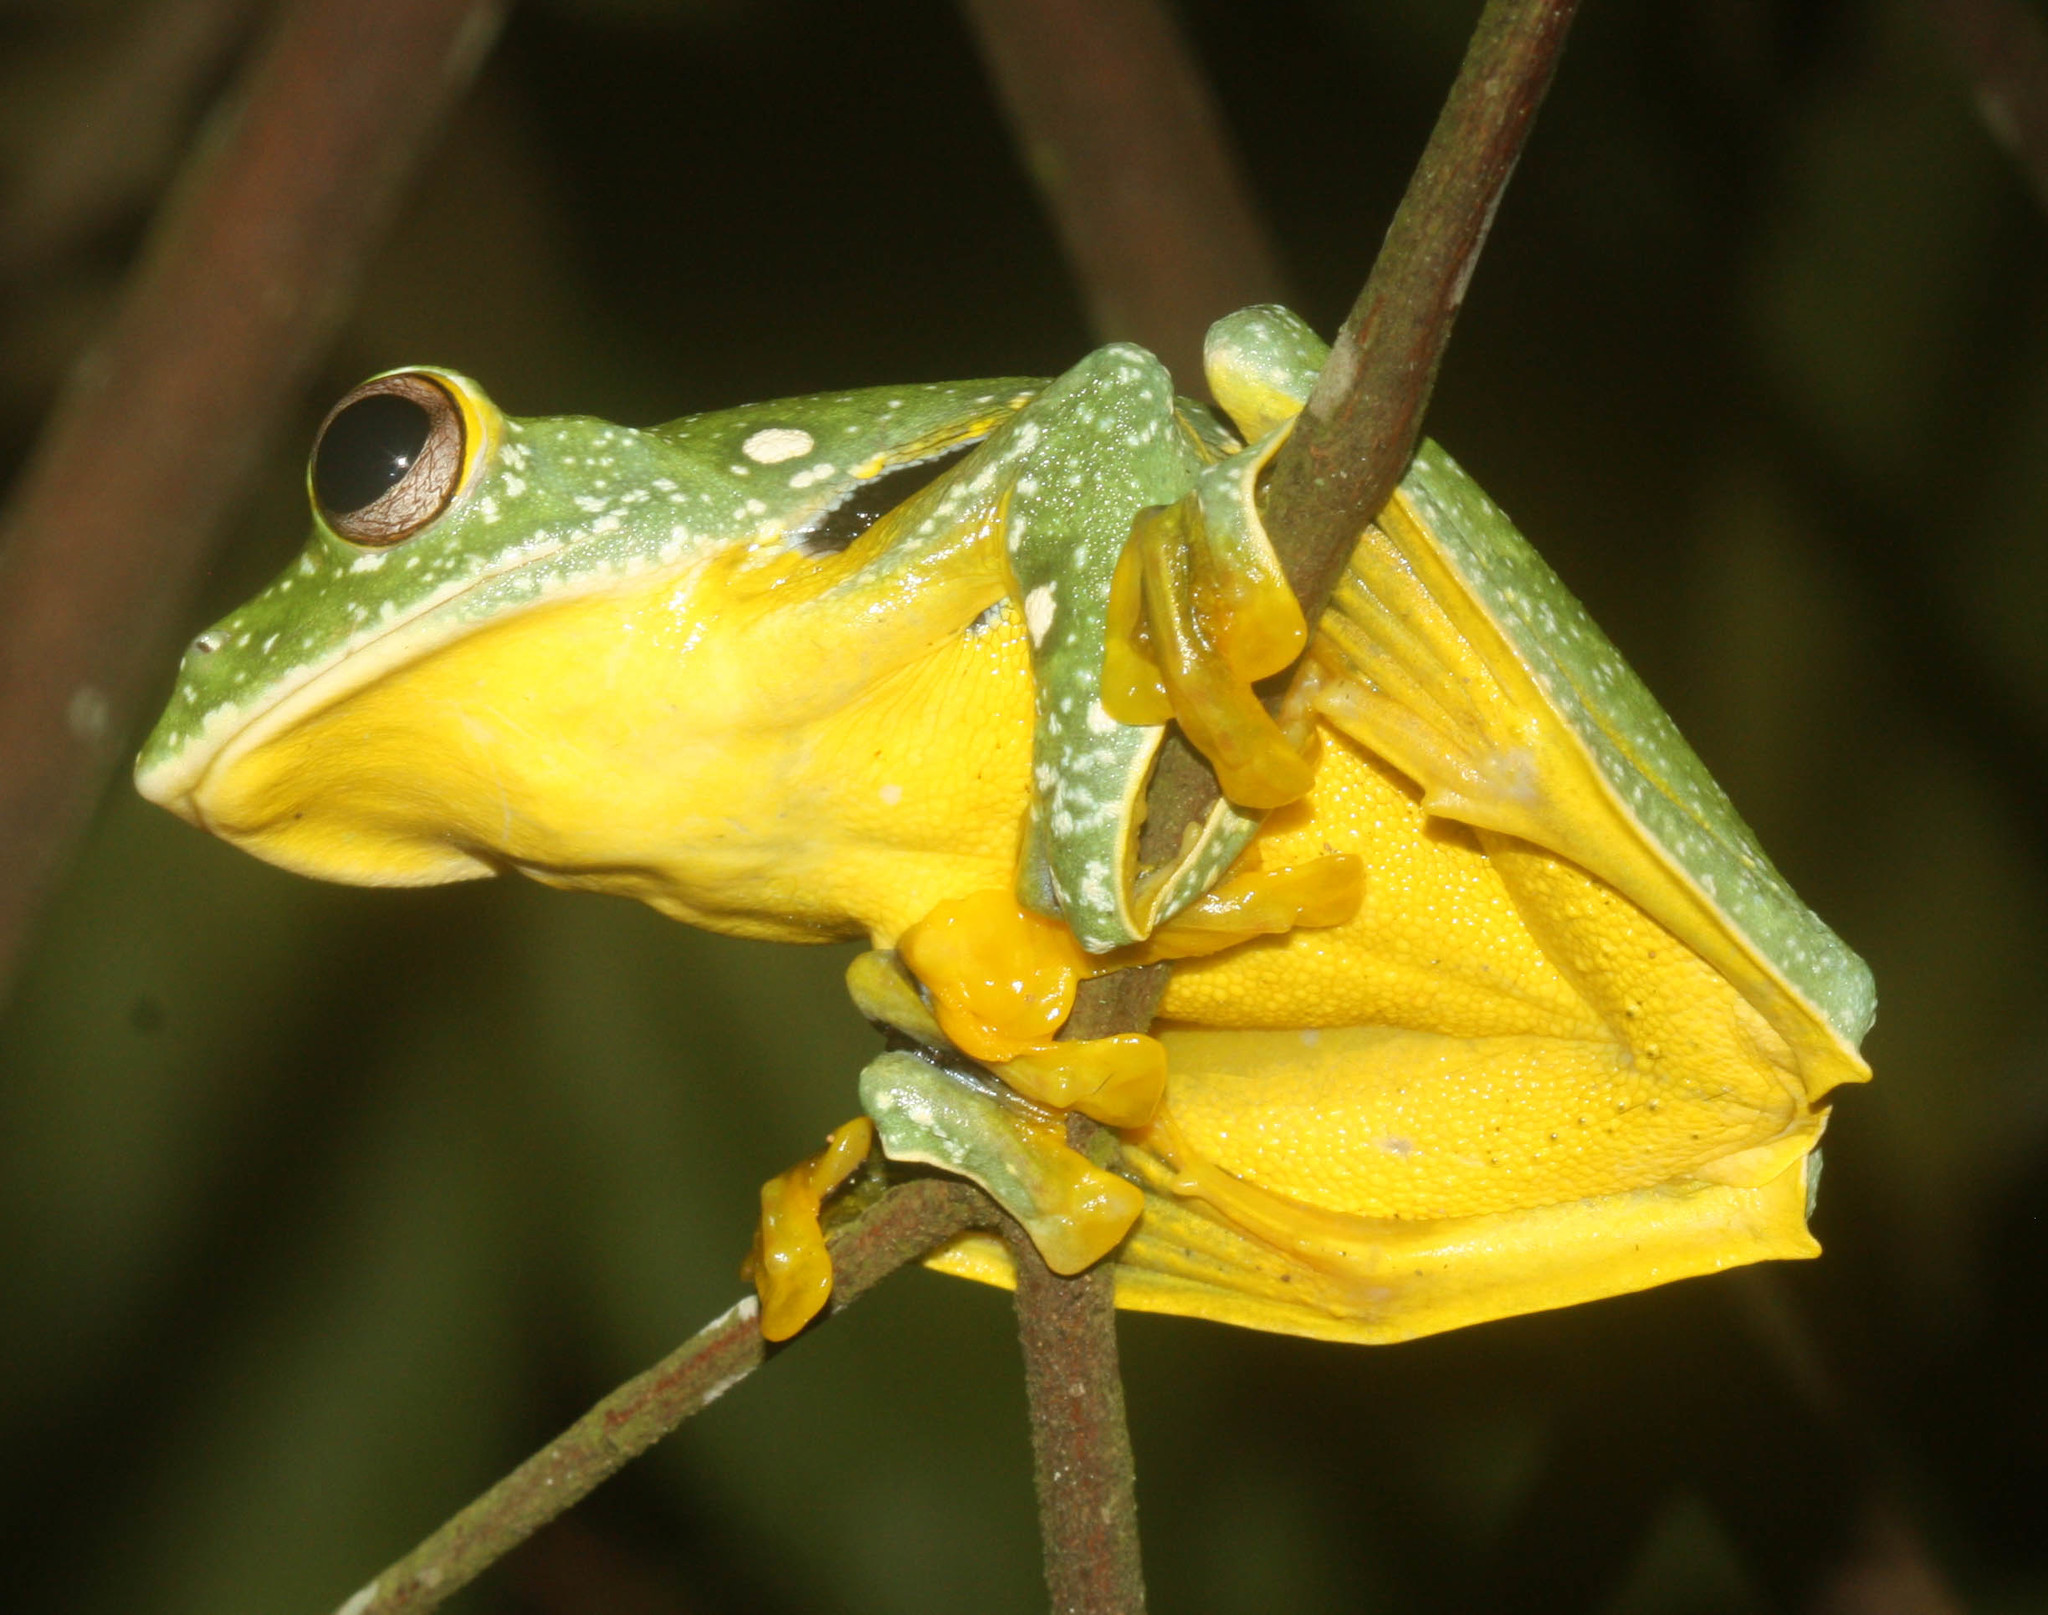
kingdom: Animalia
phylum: Chordata
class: Amphibia
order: Anura
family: Rhacophoridae
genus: Rhacophorus
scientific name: Rhacophorus kio
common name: Black-webbed treefrog
